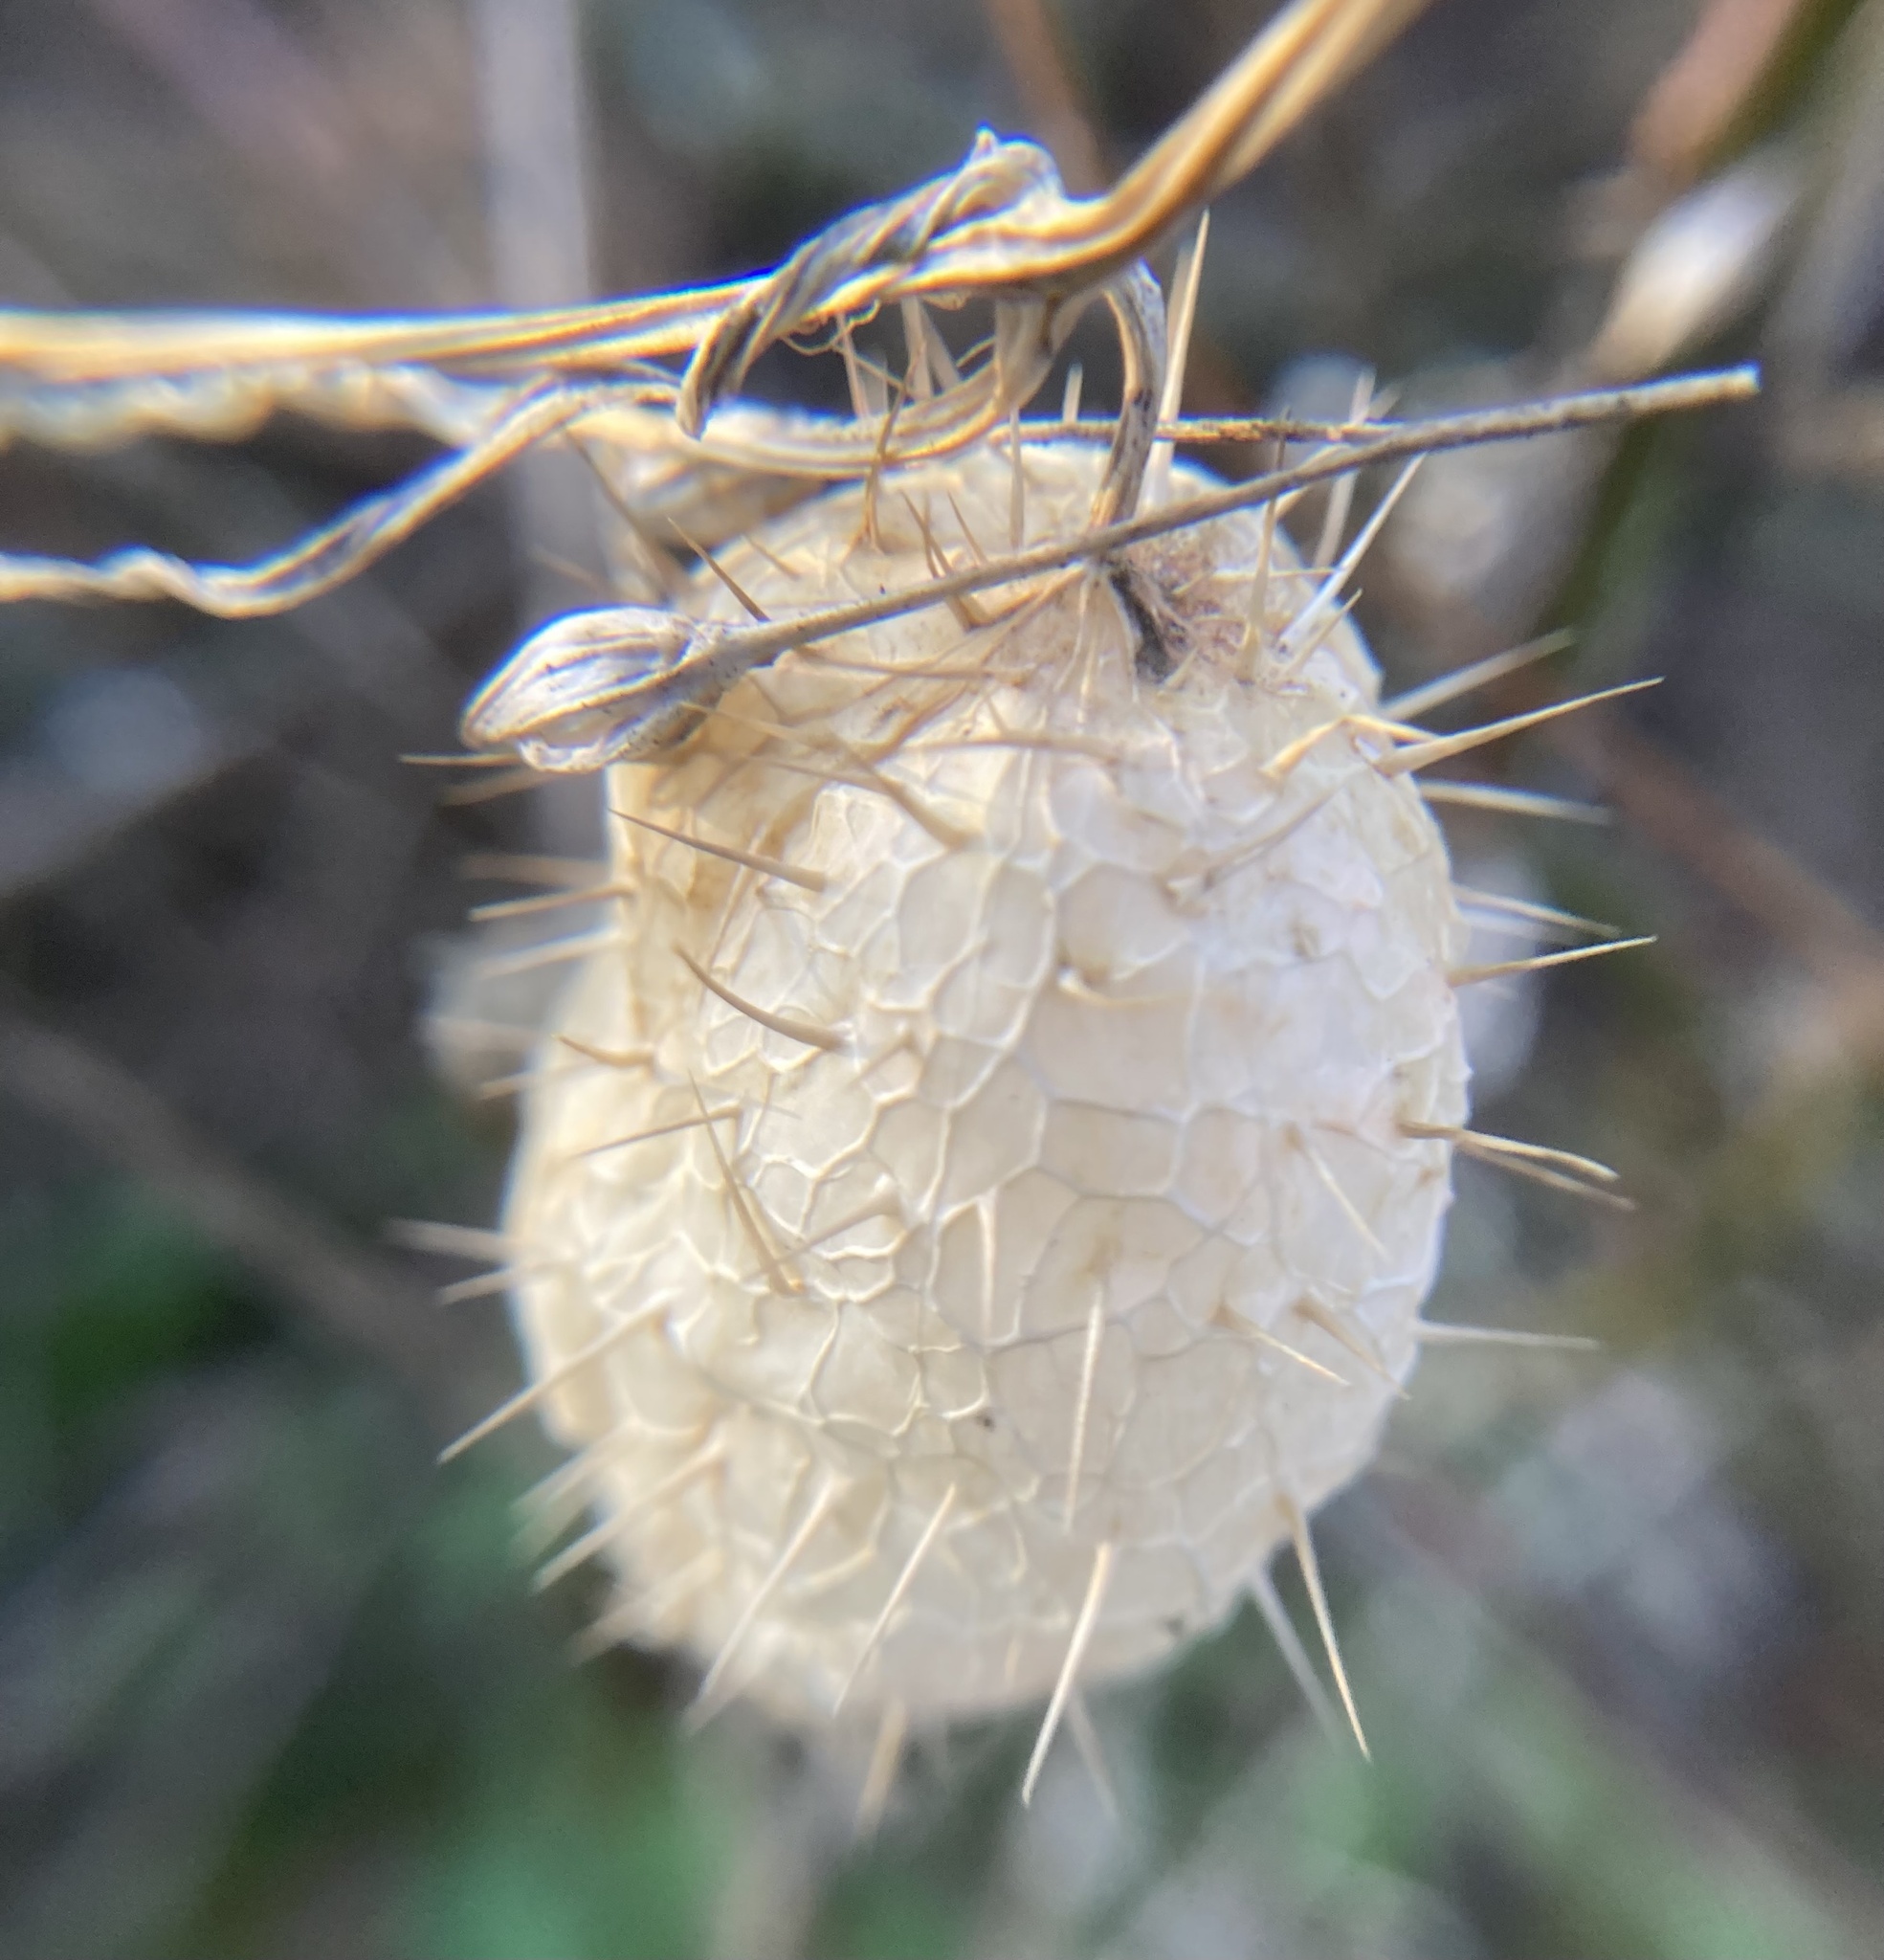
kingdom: Plantae
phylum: Tracheophyta
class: Magnoliopsida
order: Cucurbitales
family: Cucurbitaceae
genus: Echinocystis
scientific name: Echinocystis lobata
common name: Wild cucumber
